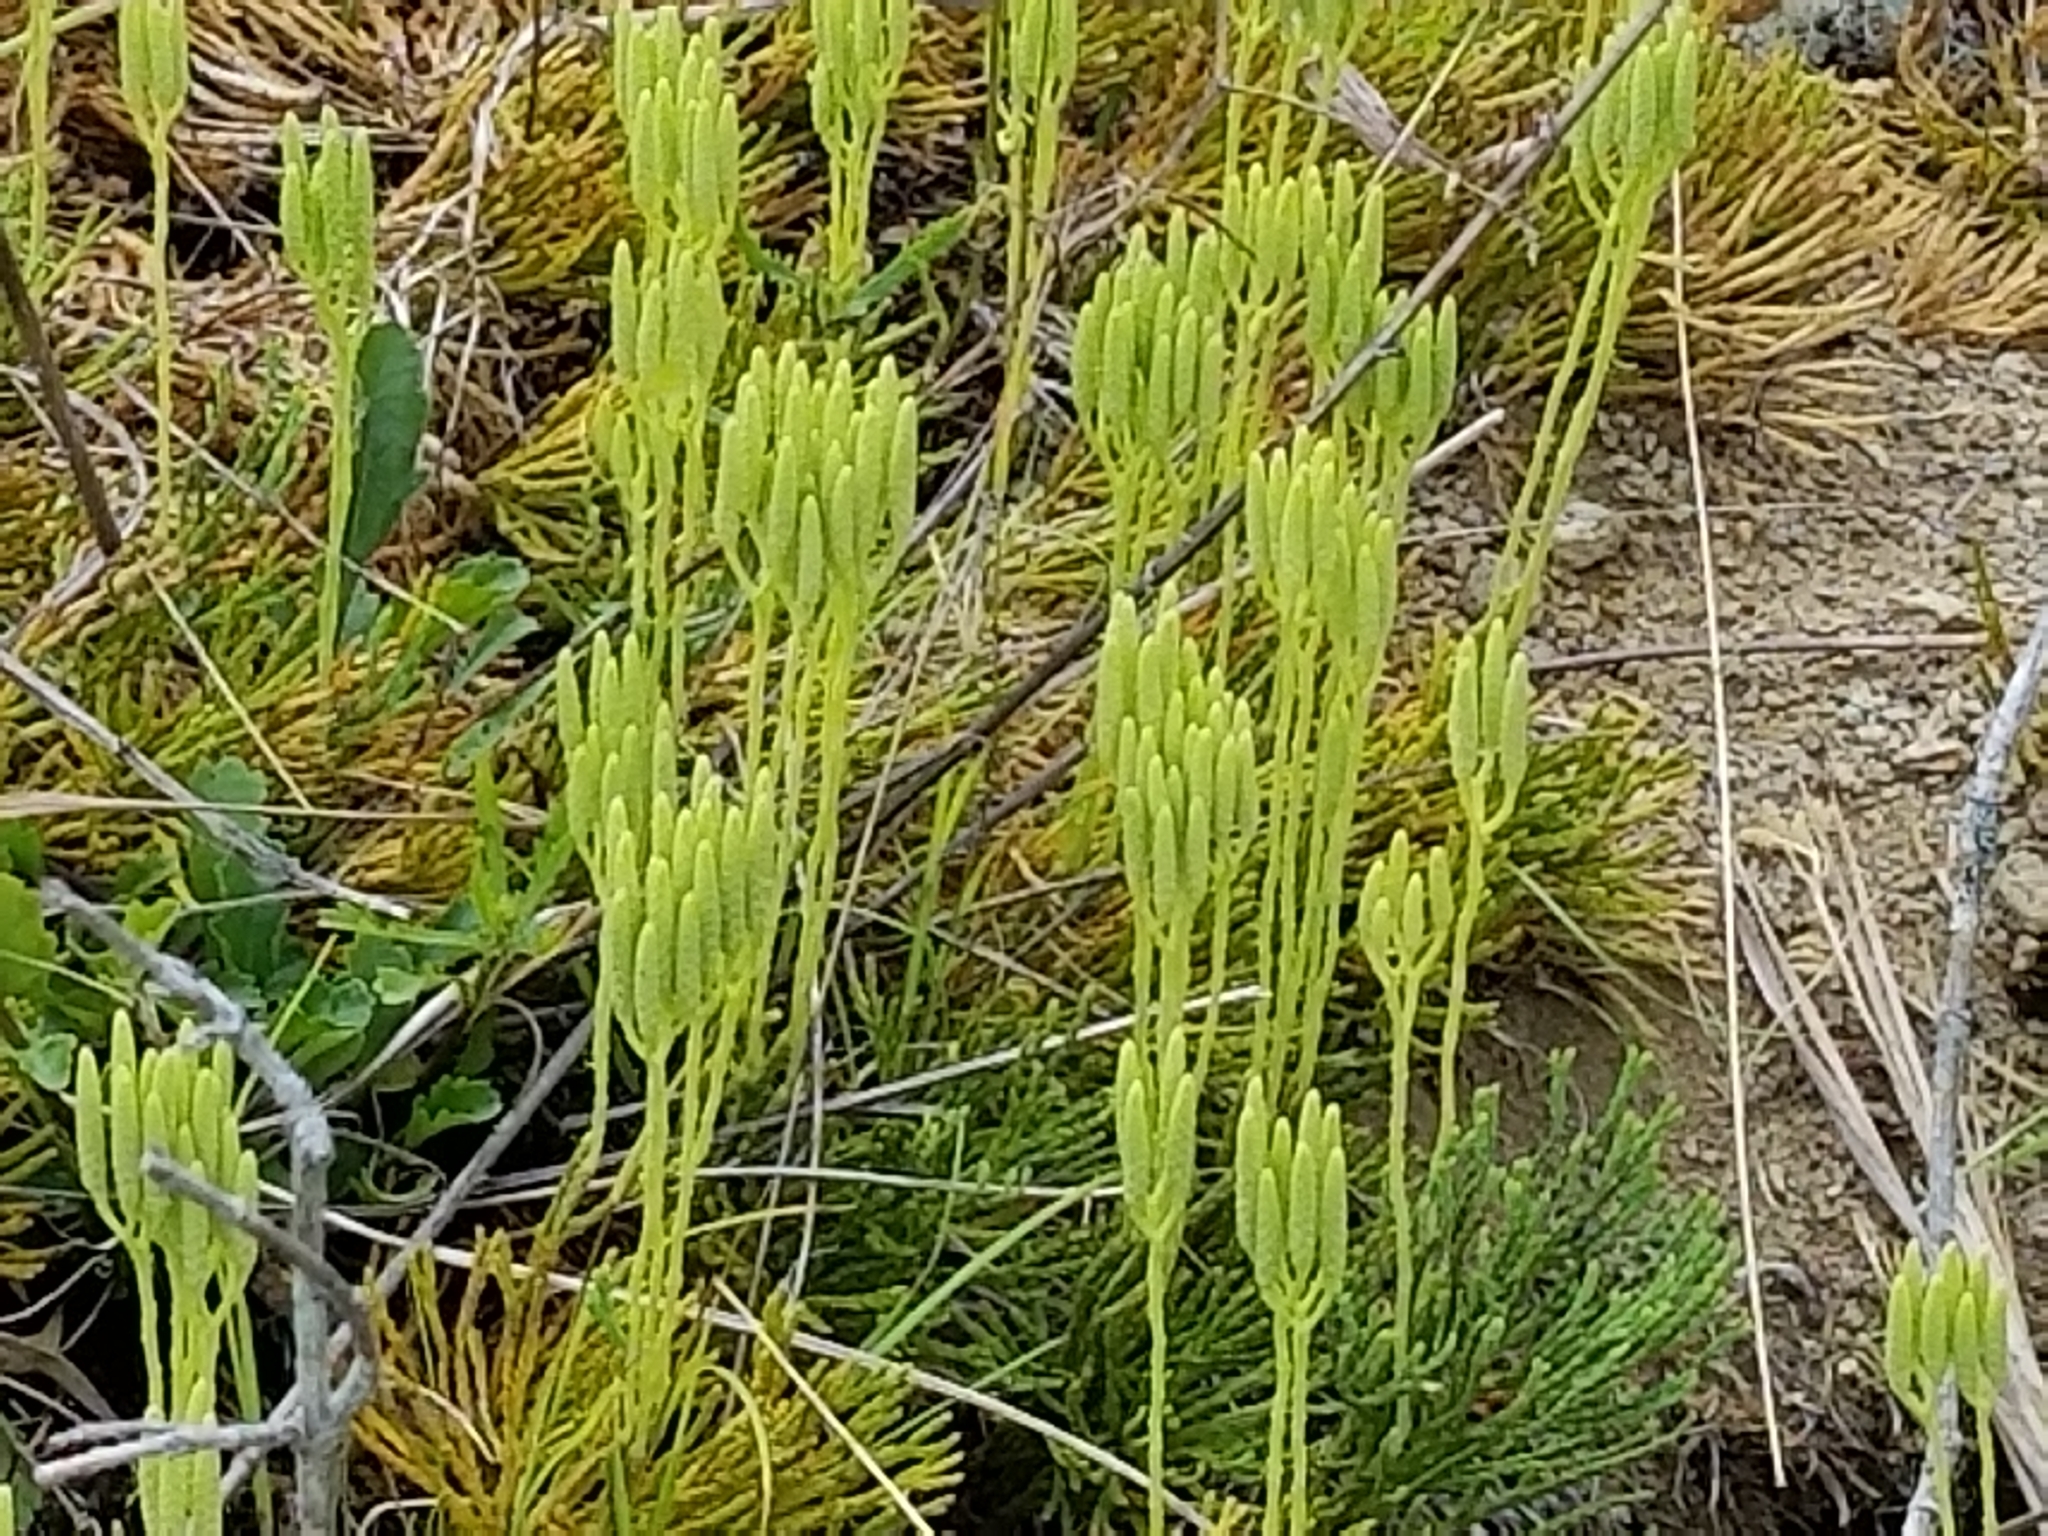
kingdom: Plantae
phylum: Tracheophyta
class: Lycopodiopsida
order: Lycopodiales
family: Lycopodiaceae
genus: Diphasiastrum
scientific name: Diphasiastrum digitatum
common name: Southern running-pine
